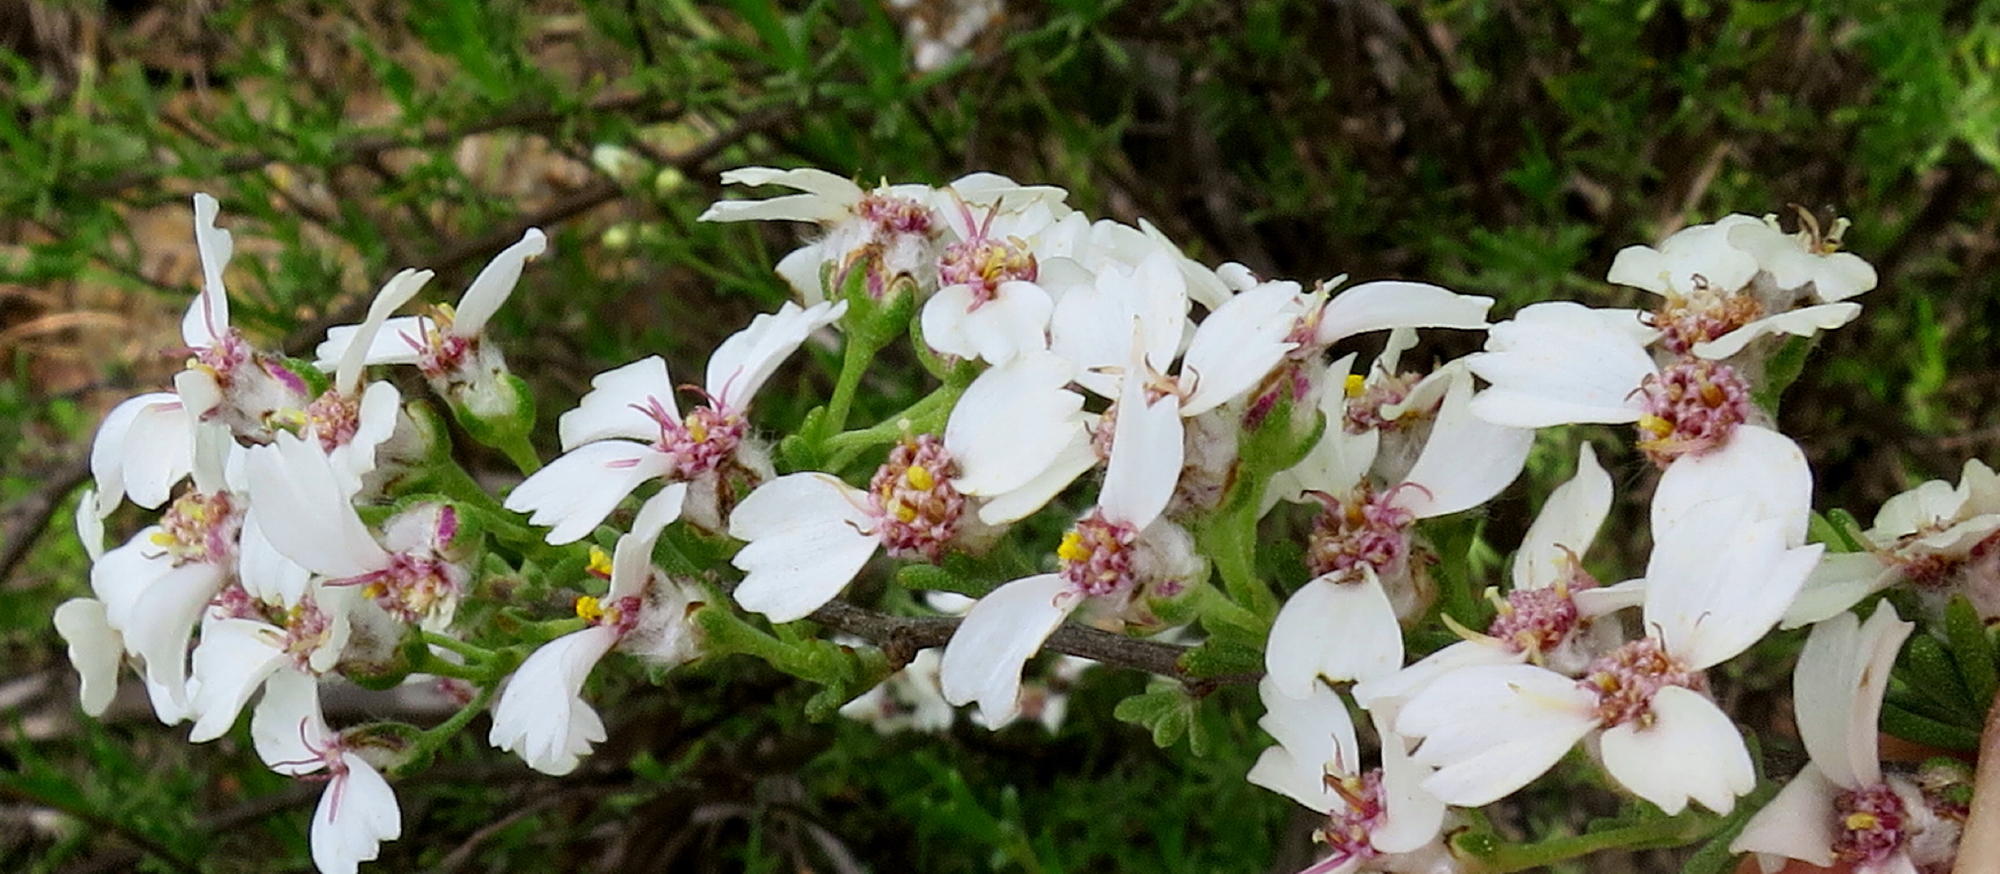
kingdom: Plantae
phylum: Tracheophyta
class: Magnoliopsida
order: Asterales
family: Asteraceae
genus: Eriocephalus
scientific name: Eriocephalus africanus
